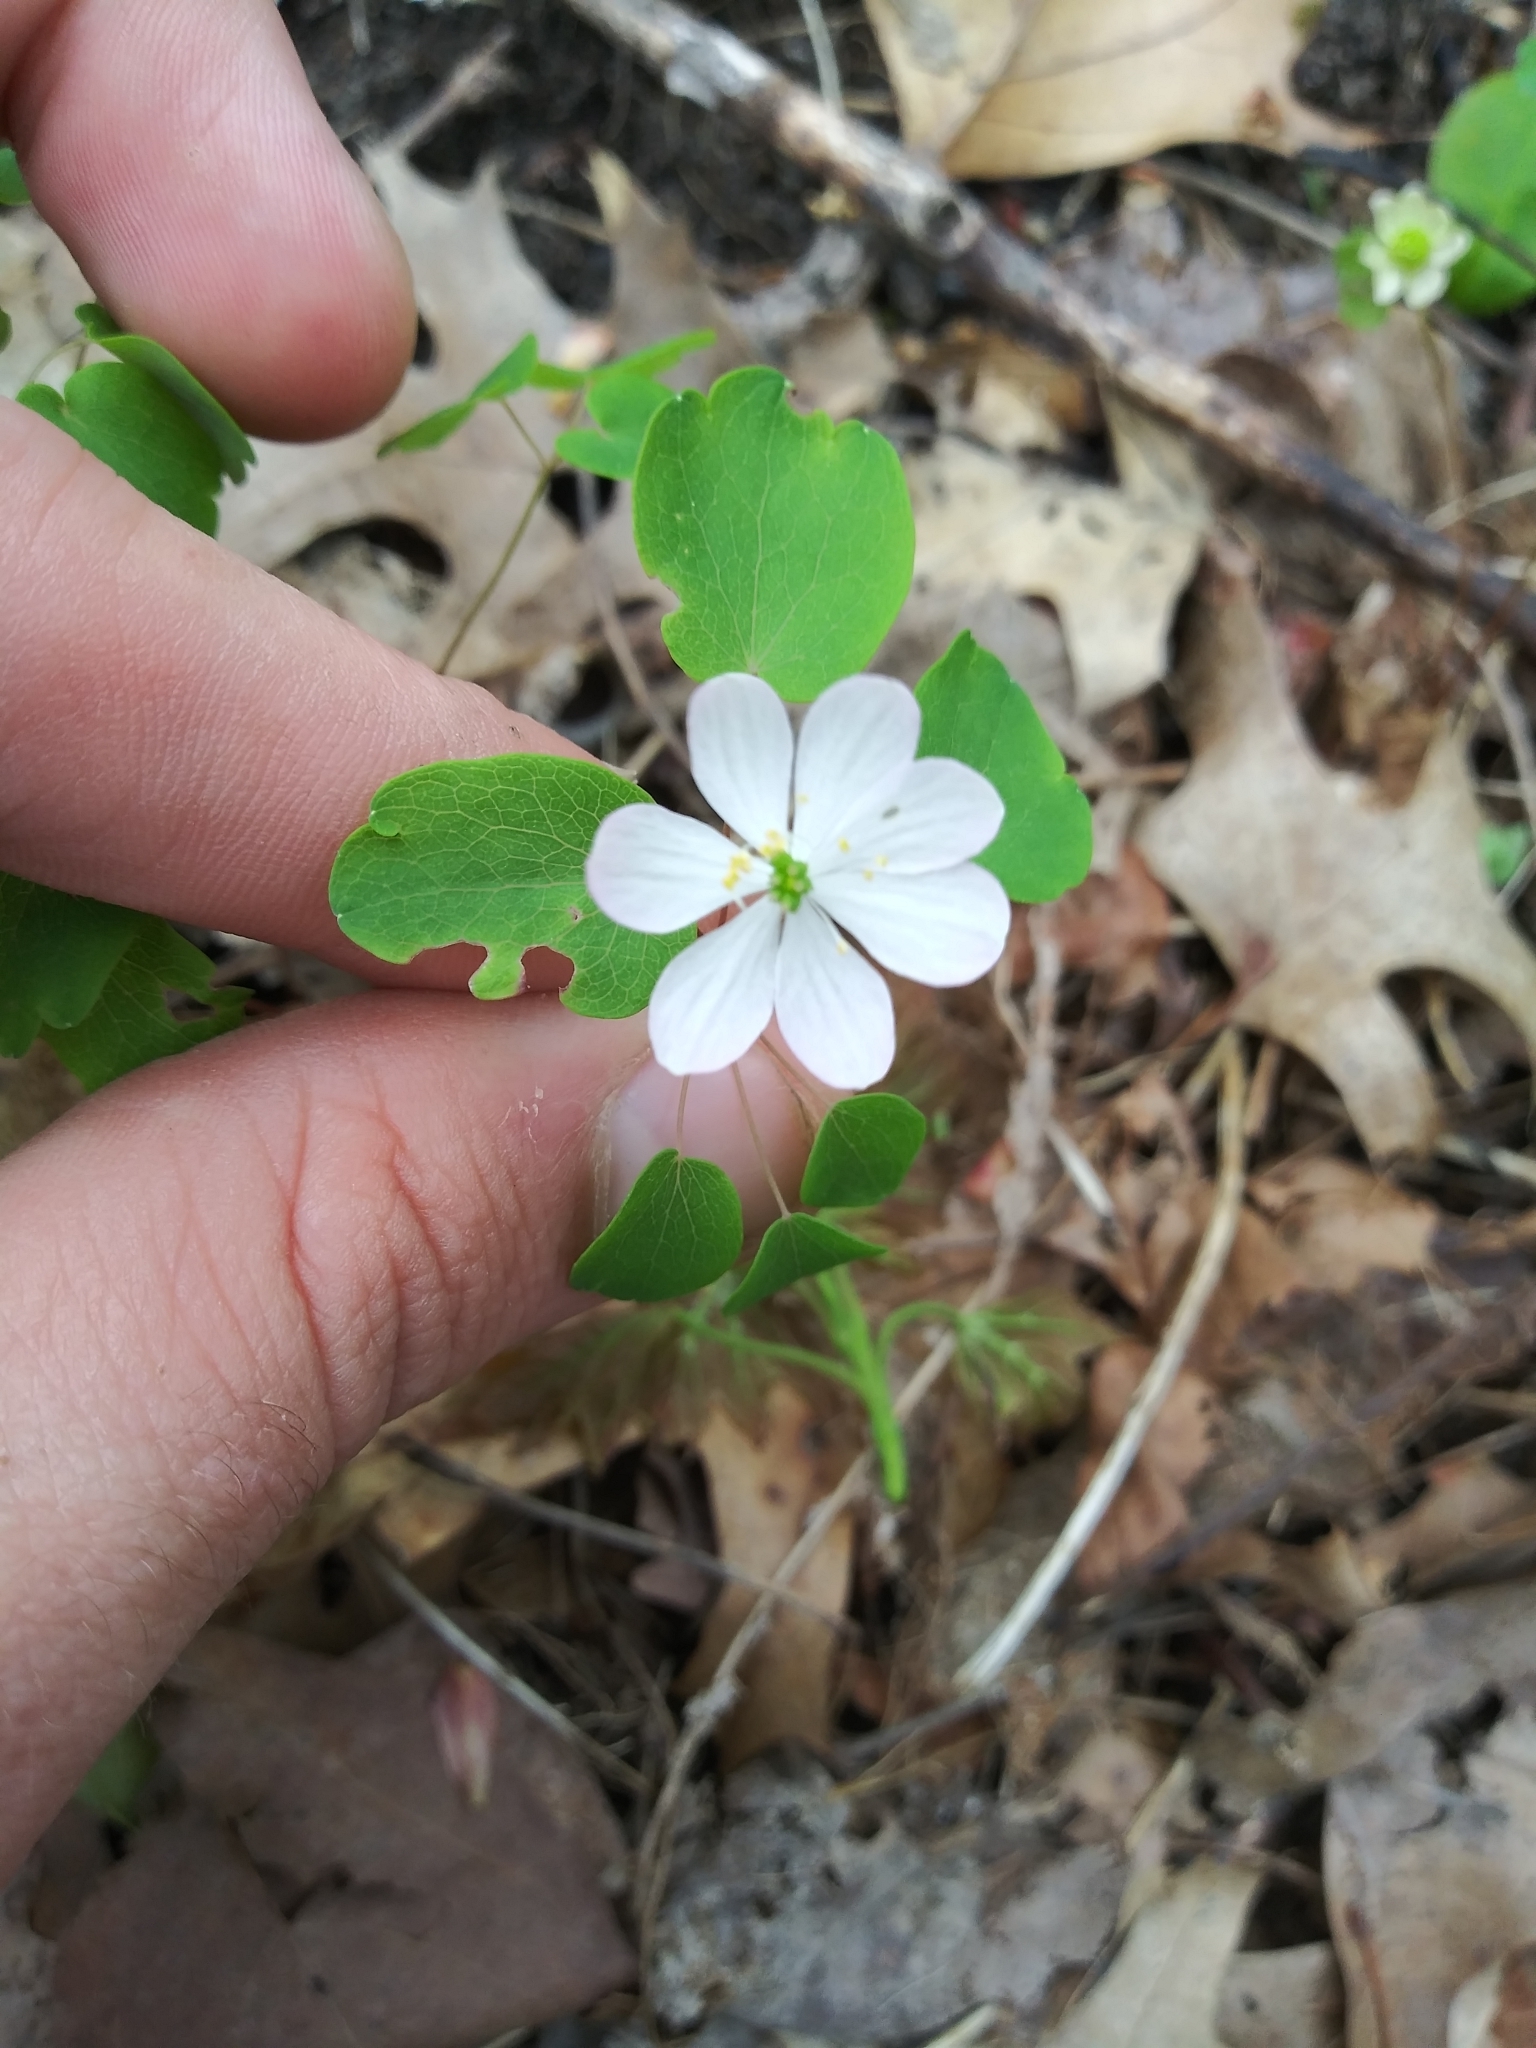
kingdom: Plantae
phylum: Tracheophyta
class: Magnoliopsida
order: Ranunculales
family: Ranunculaceae
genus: Thalictrum
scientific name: Thalictrum thalictroides
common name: Rue-anemone
